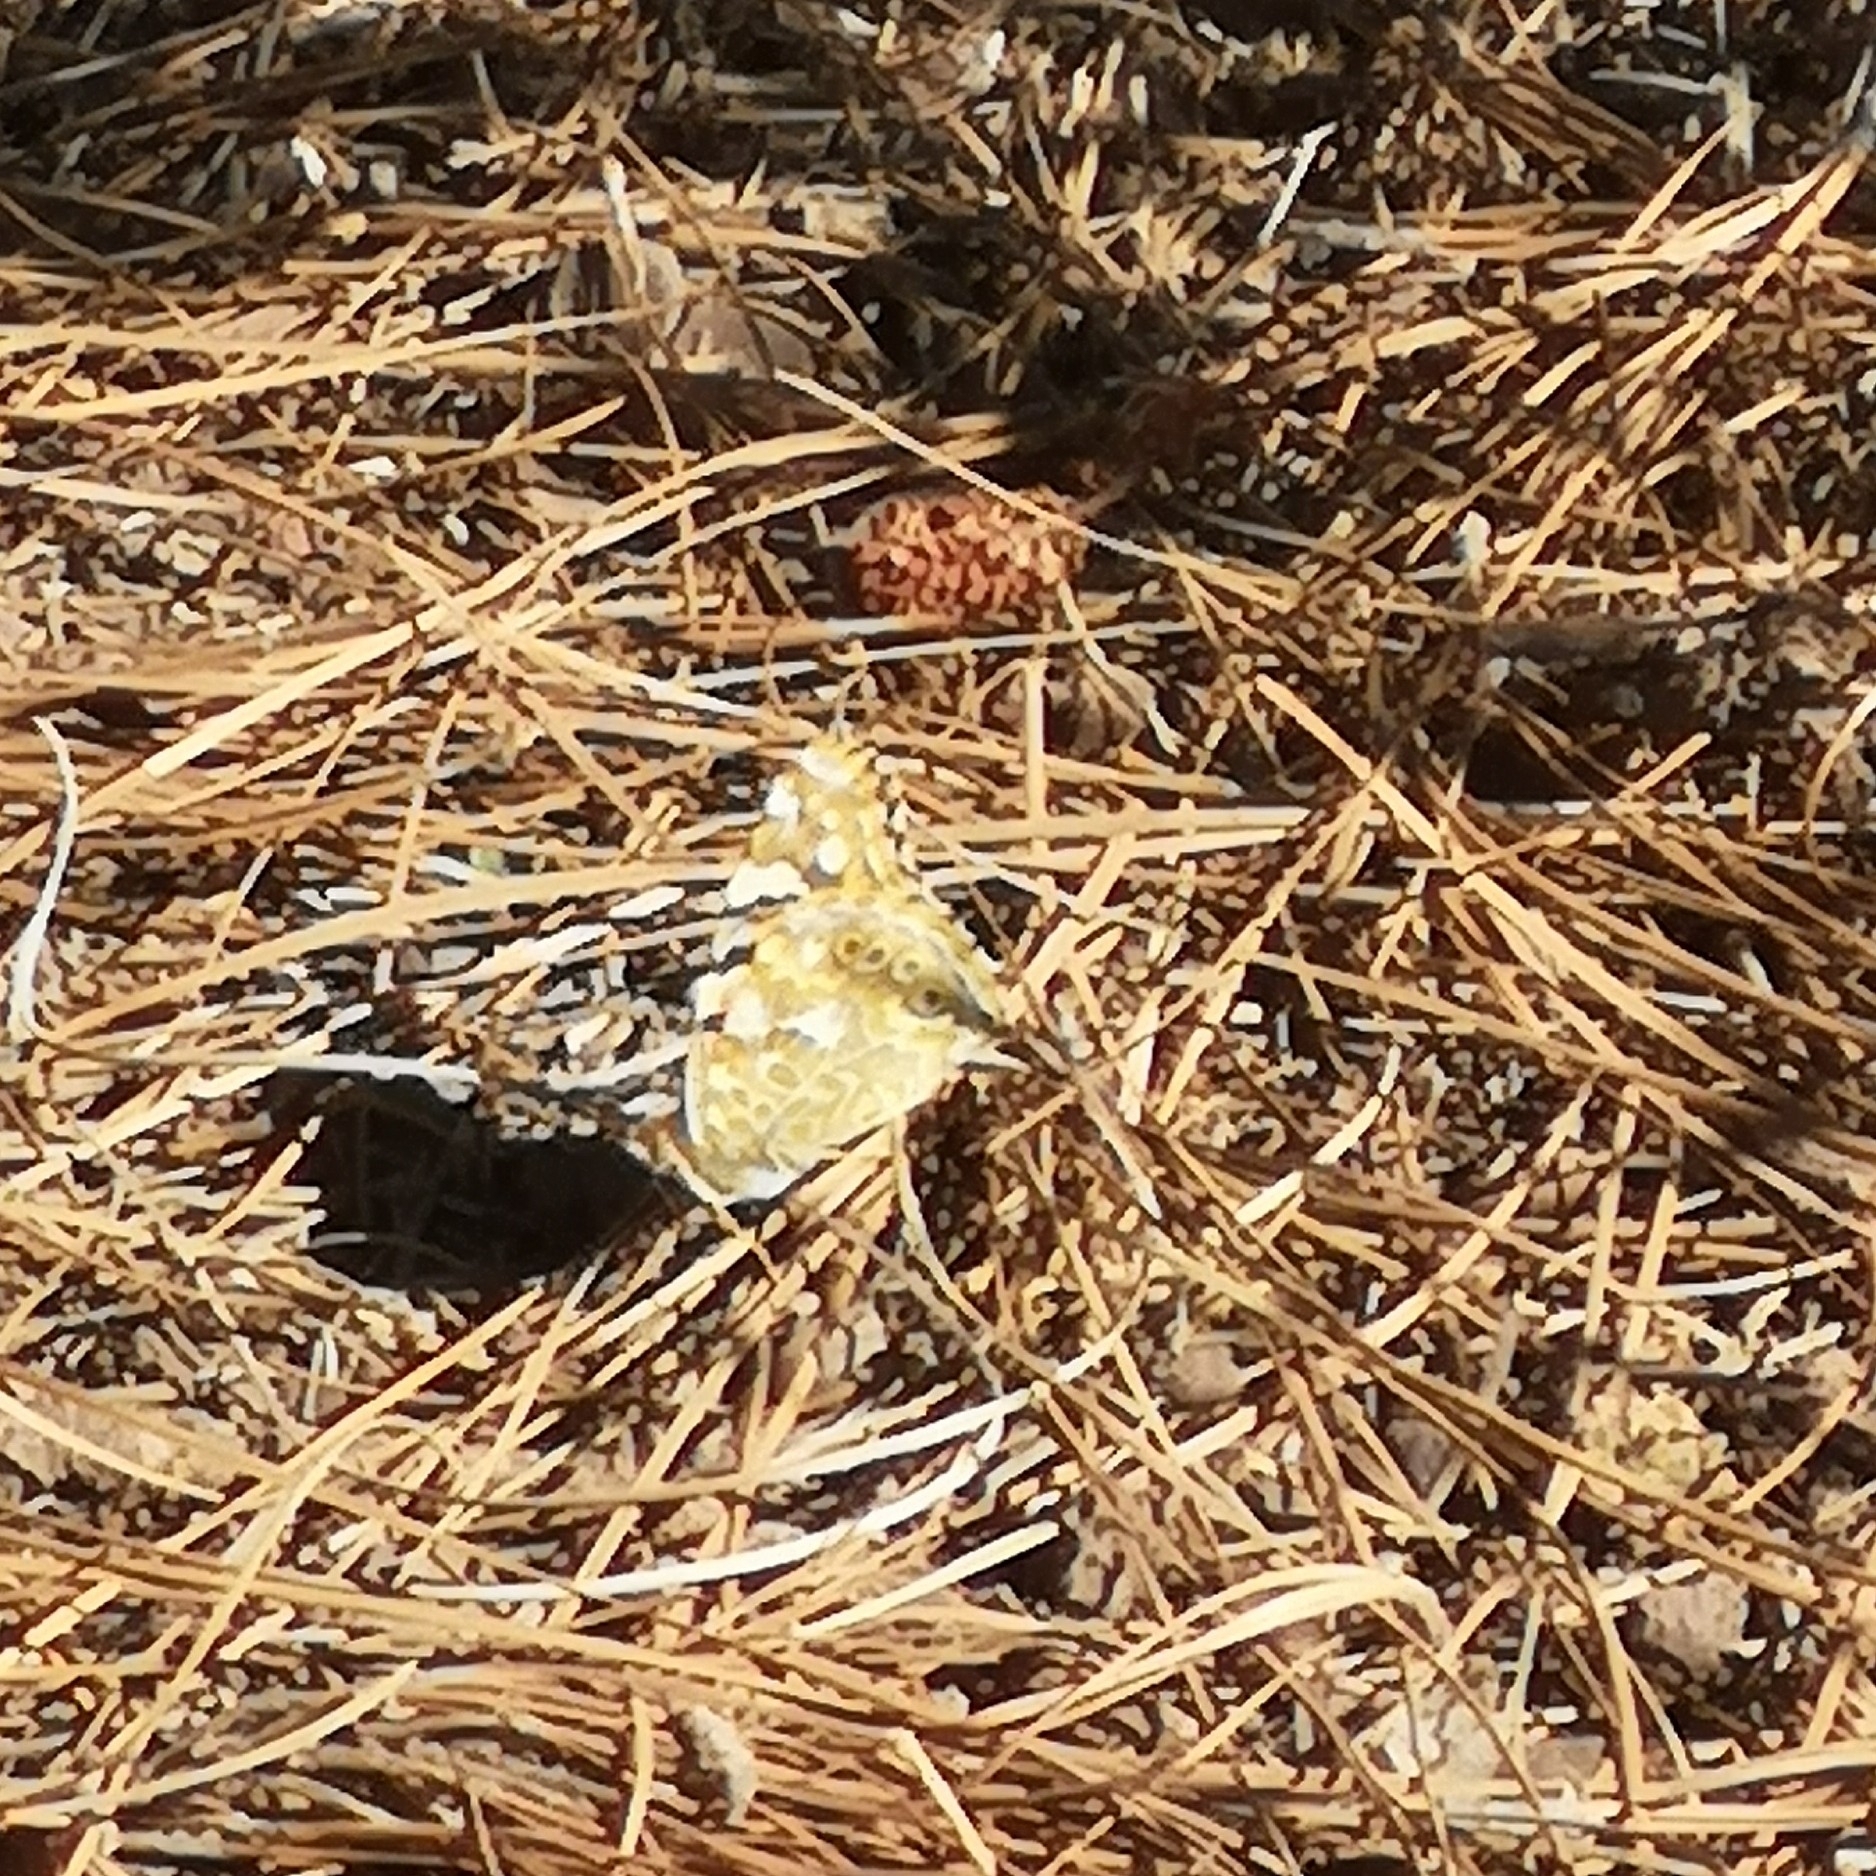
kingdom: Animalia
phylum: Arthropoda
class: Insecta
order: Lepidoptera
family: Nymphalidae
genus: Vanessa
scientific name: Vanessa cardui
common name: Painted lady
